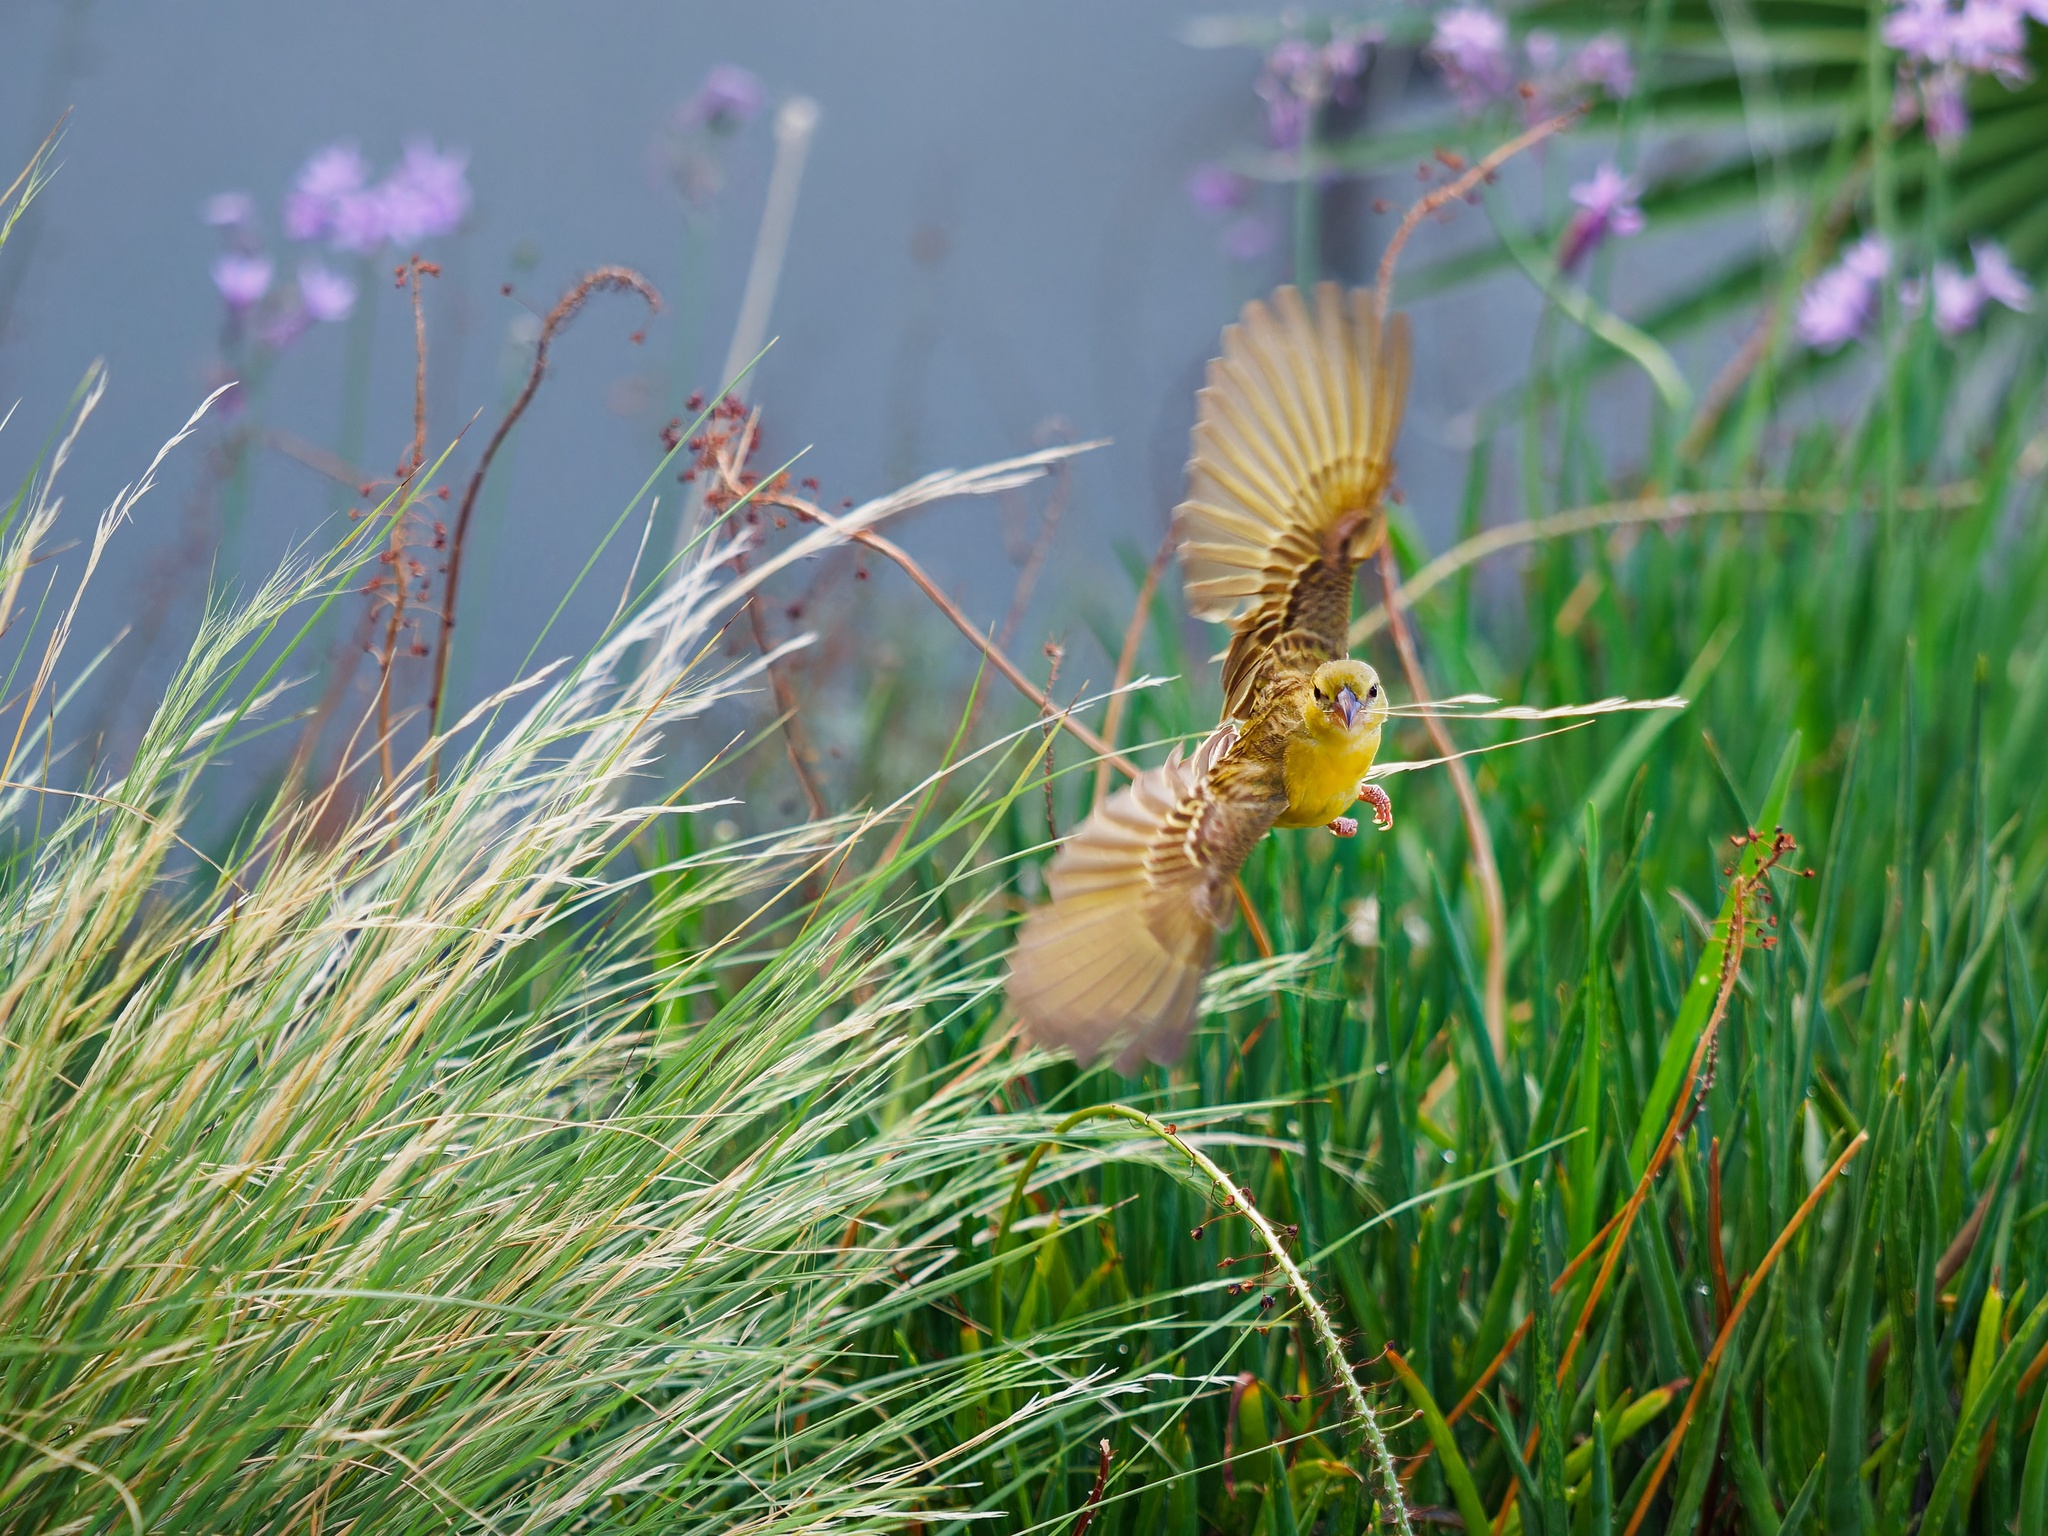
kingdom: Animalia
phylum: Chordata
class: Aves
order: Passeriformes
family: Ploceidae
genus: Ploceus
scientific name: Ploceus velatus
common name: Southern masked weaver
